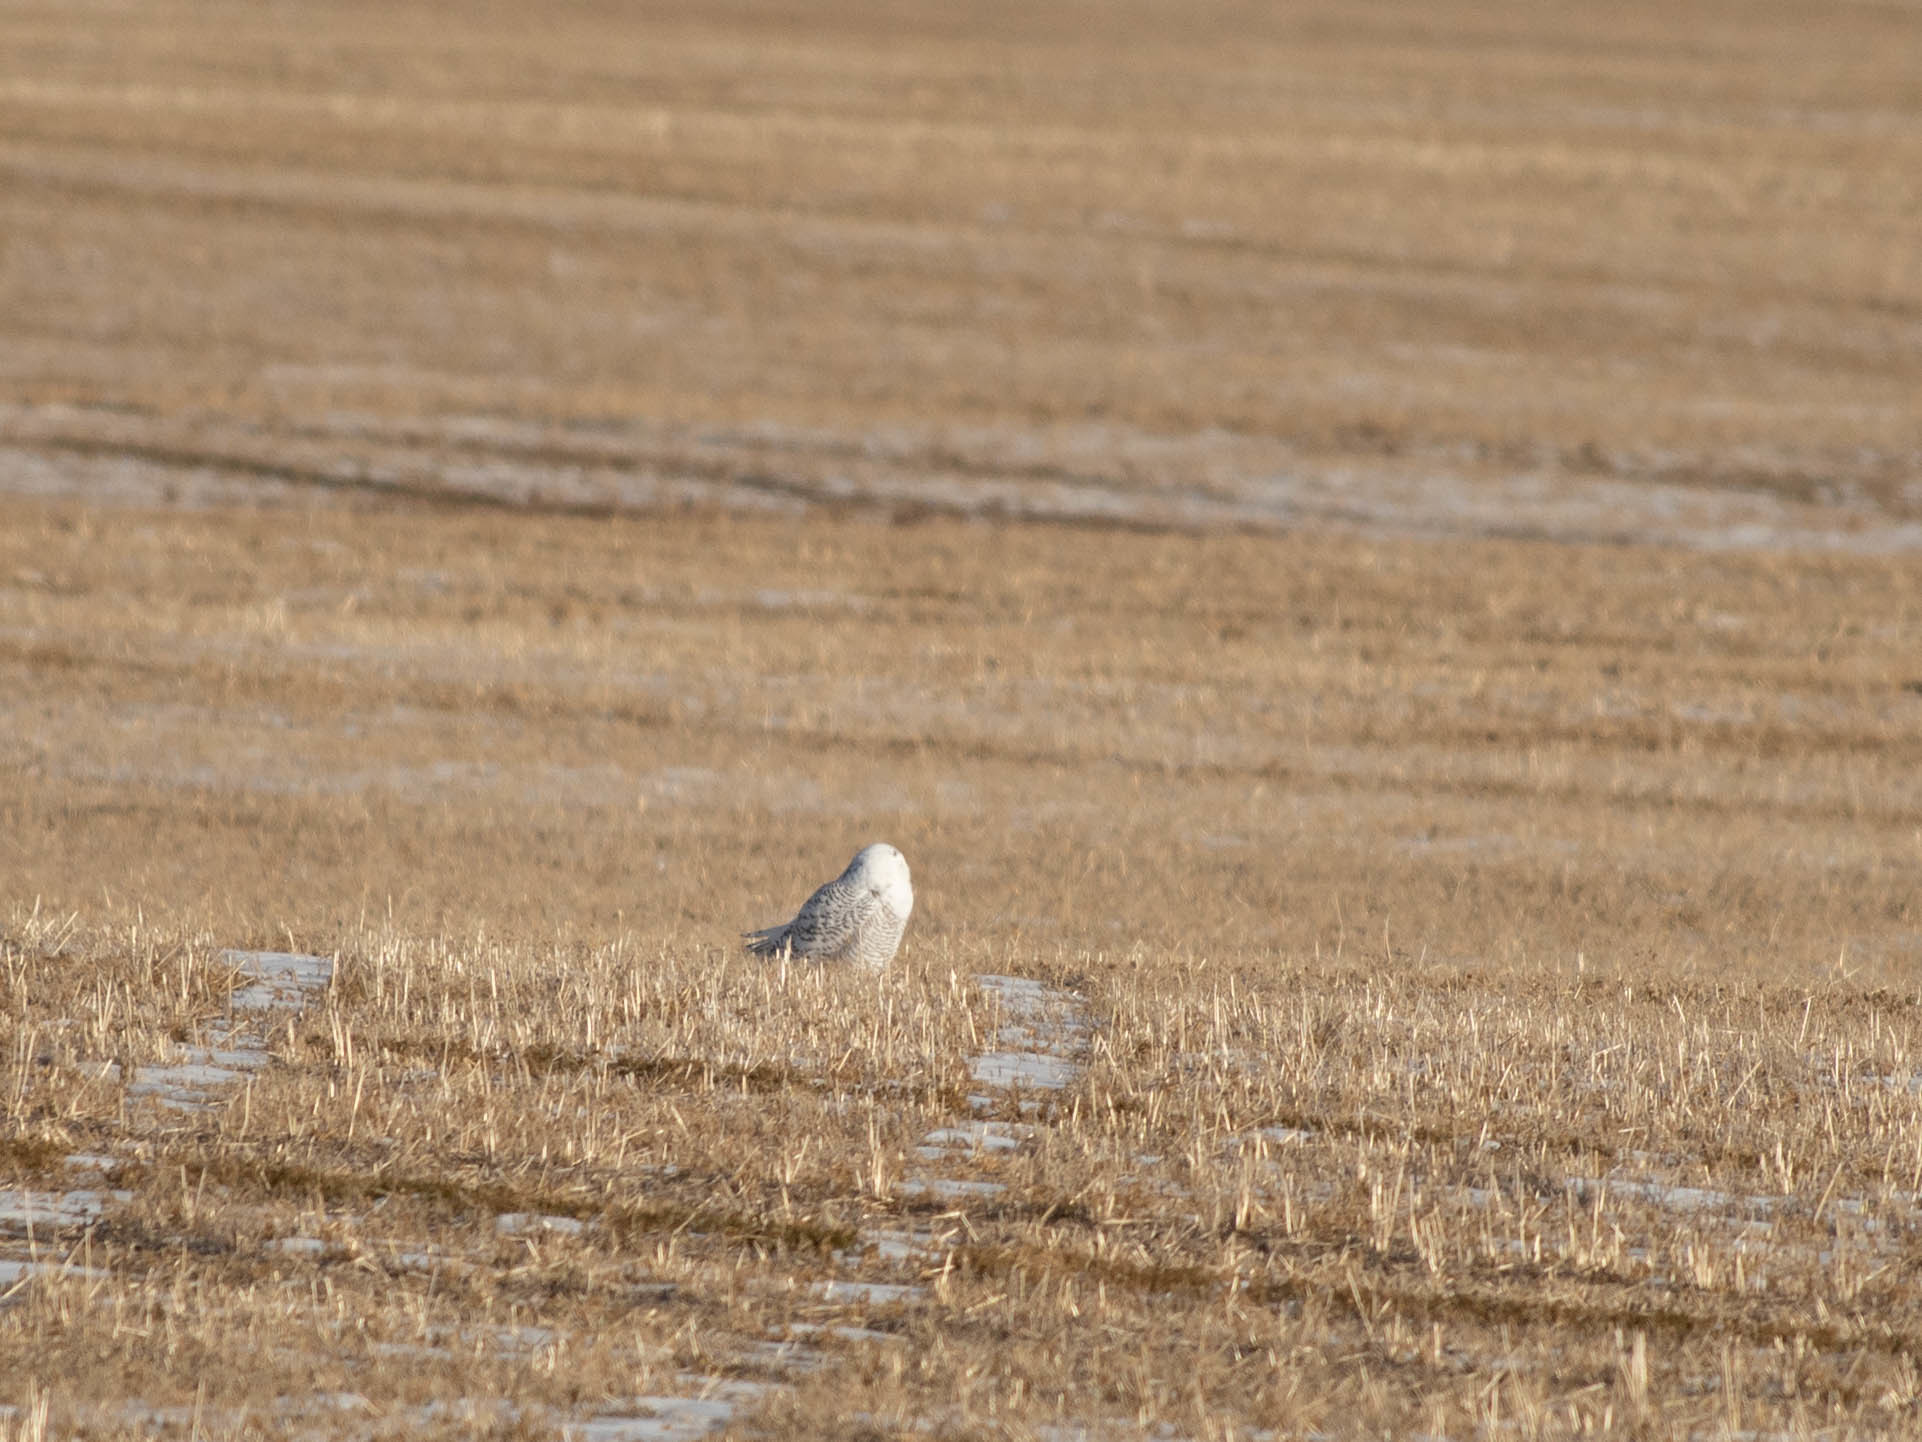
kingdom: Animalia
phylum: Chordata
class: Aves
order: Strigiformes
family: Strigidae
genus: Bubo
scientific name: Bubo scandiacus
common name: Snowy owl
